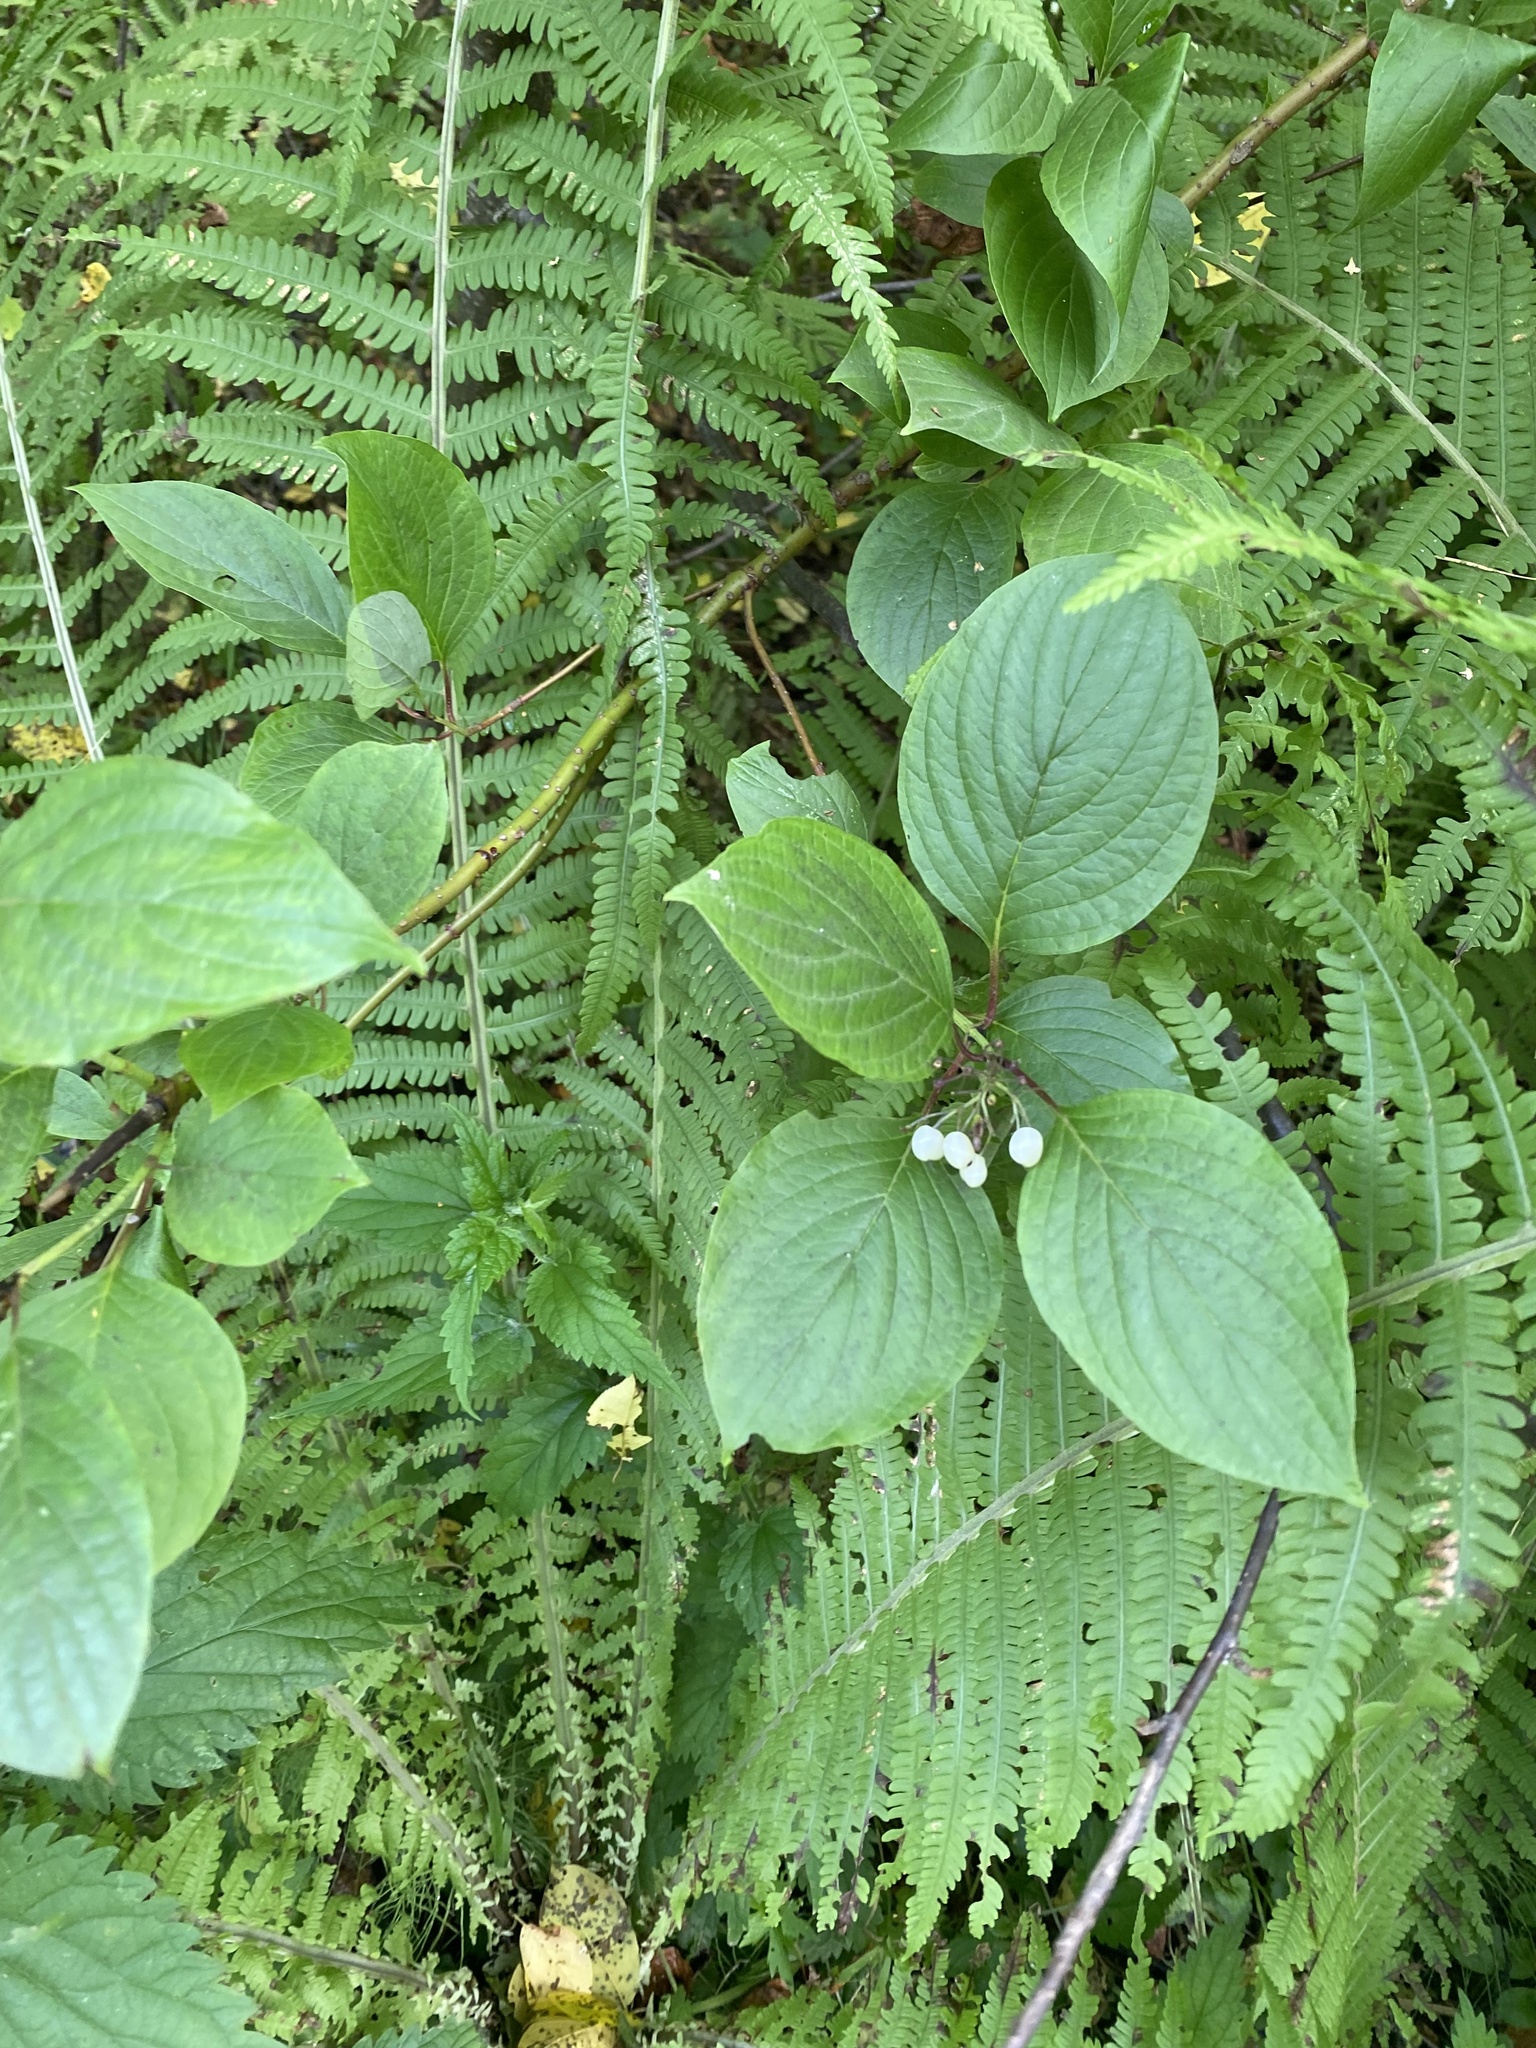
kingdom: Plantae
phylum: Tracheophyta
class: Magnoliopsida
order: Cornales
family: Cornaceae
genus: Cornus
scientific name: Cornus alba
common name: White dogwood
